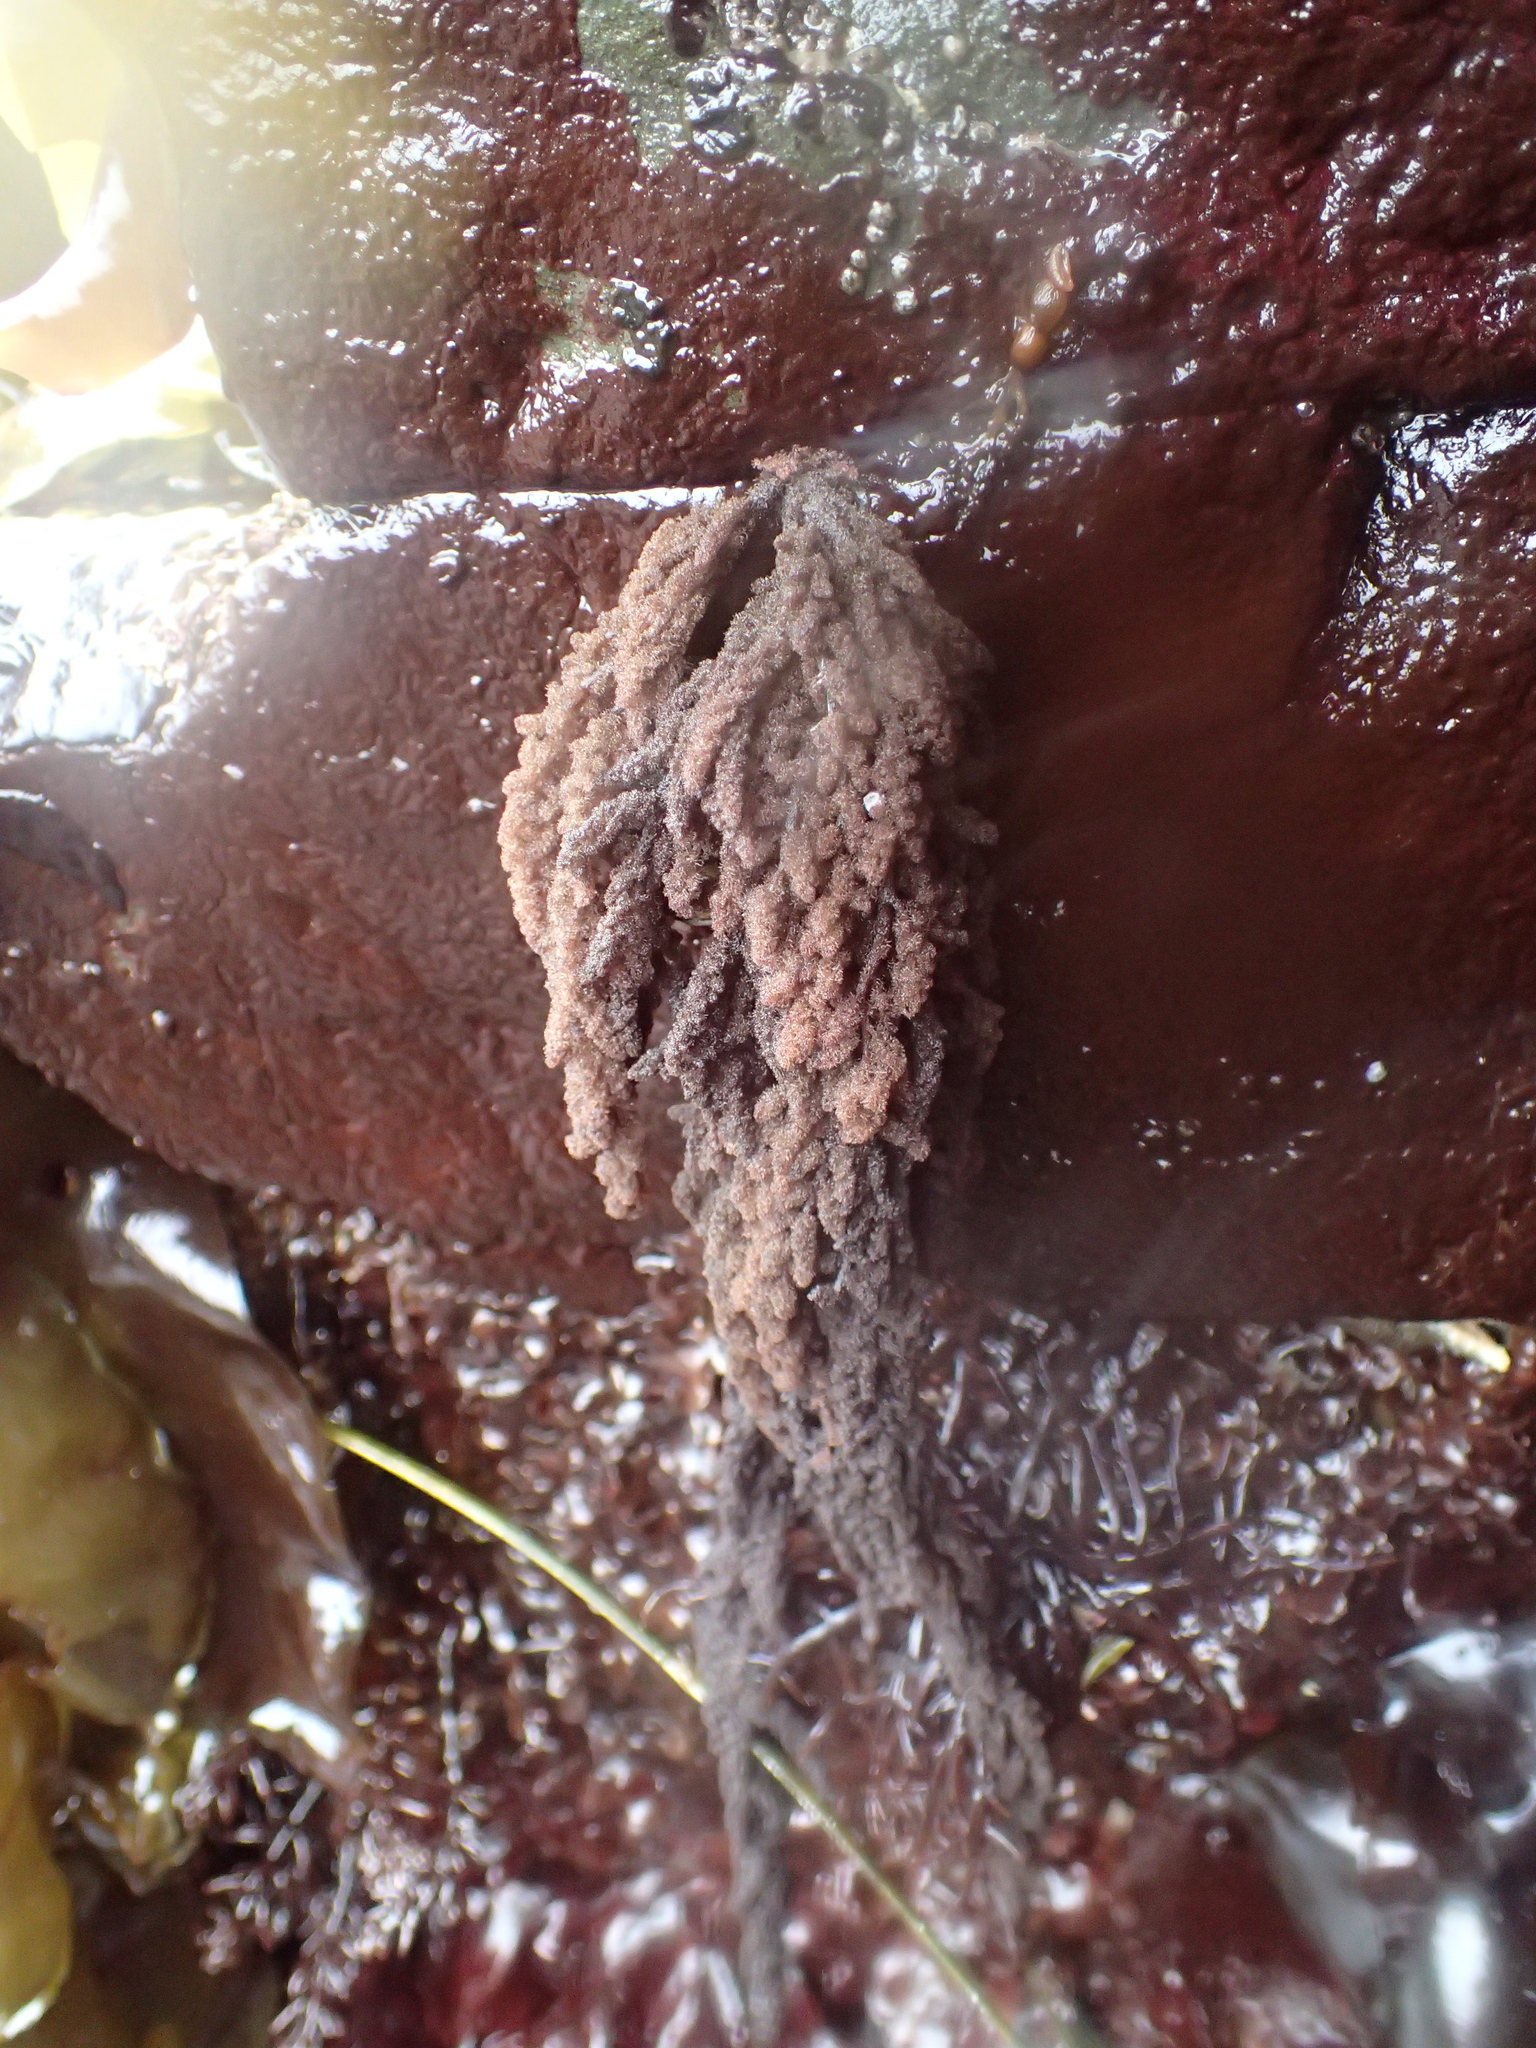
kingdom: Plantae
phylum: Rhodophyta
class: Florideophyceae
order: Ceramiales
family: Callithamniaceae
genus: Callithamnion
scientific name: Callithamnion pikeanum
